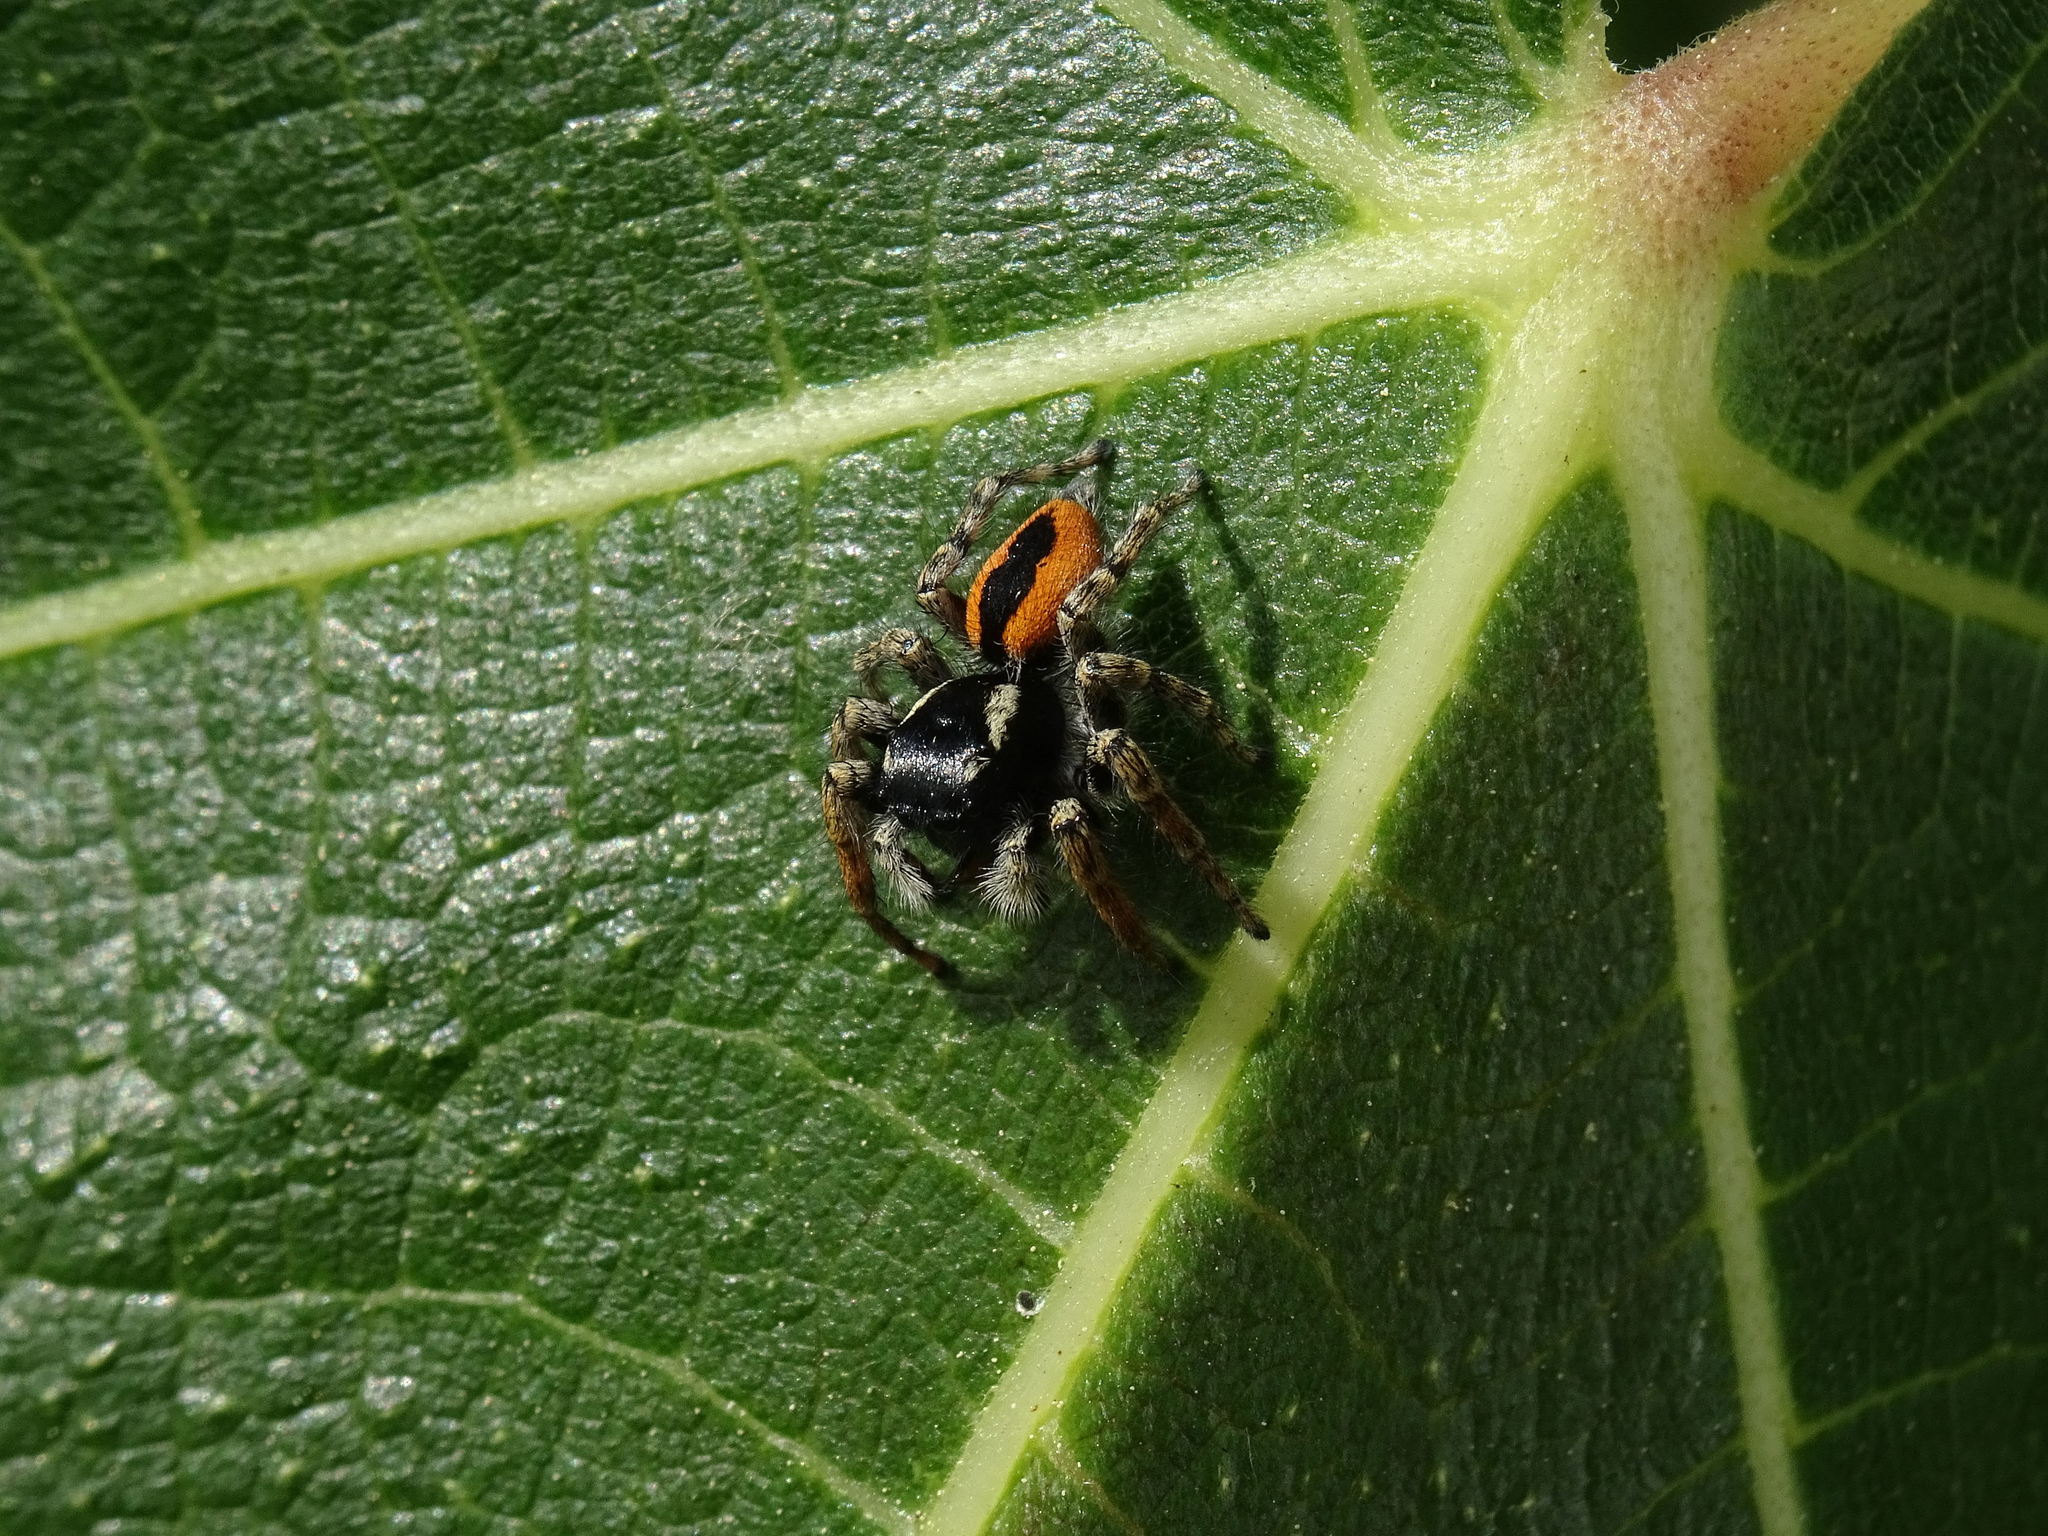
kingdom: Animalia
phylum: Arthropoda
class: Arachnida
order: Araneae
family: Salticidae
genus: Philaeus
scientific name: Philaeus chrysops
